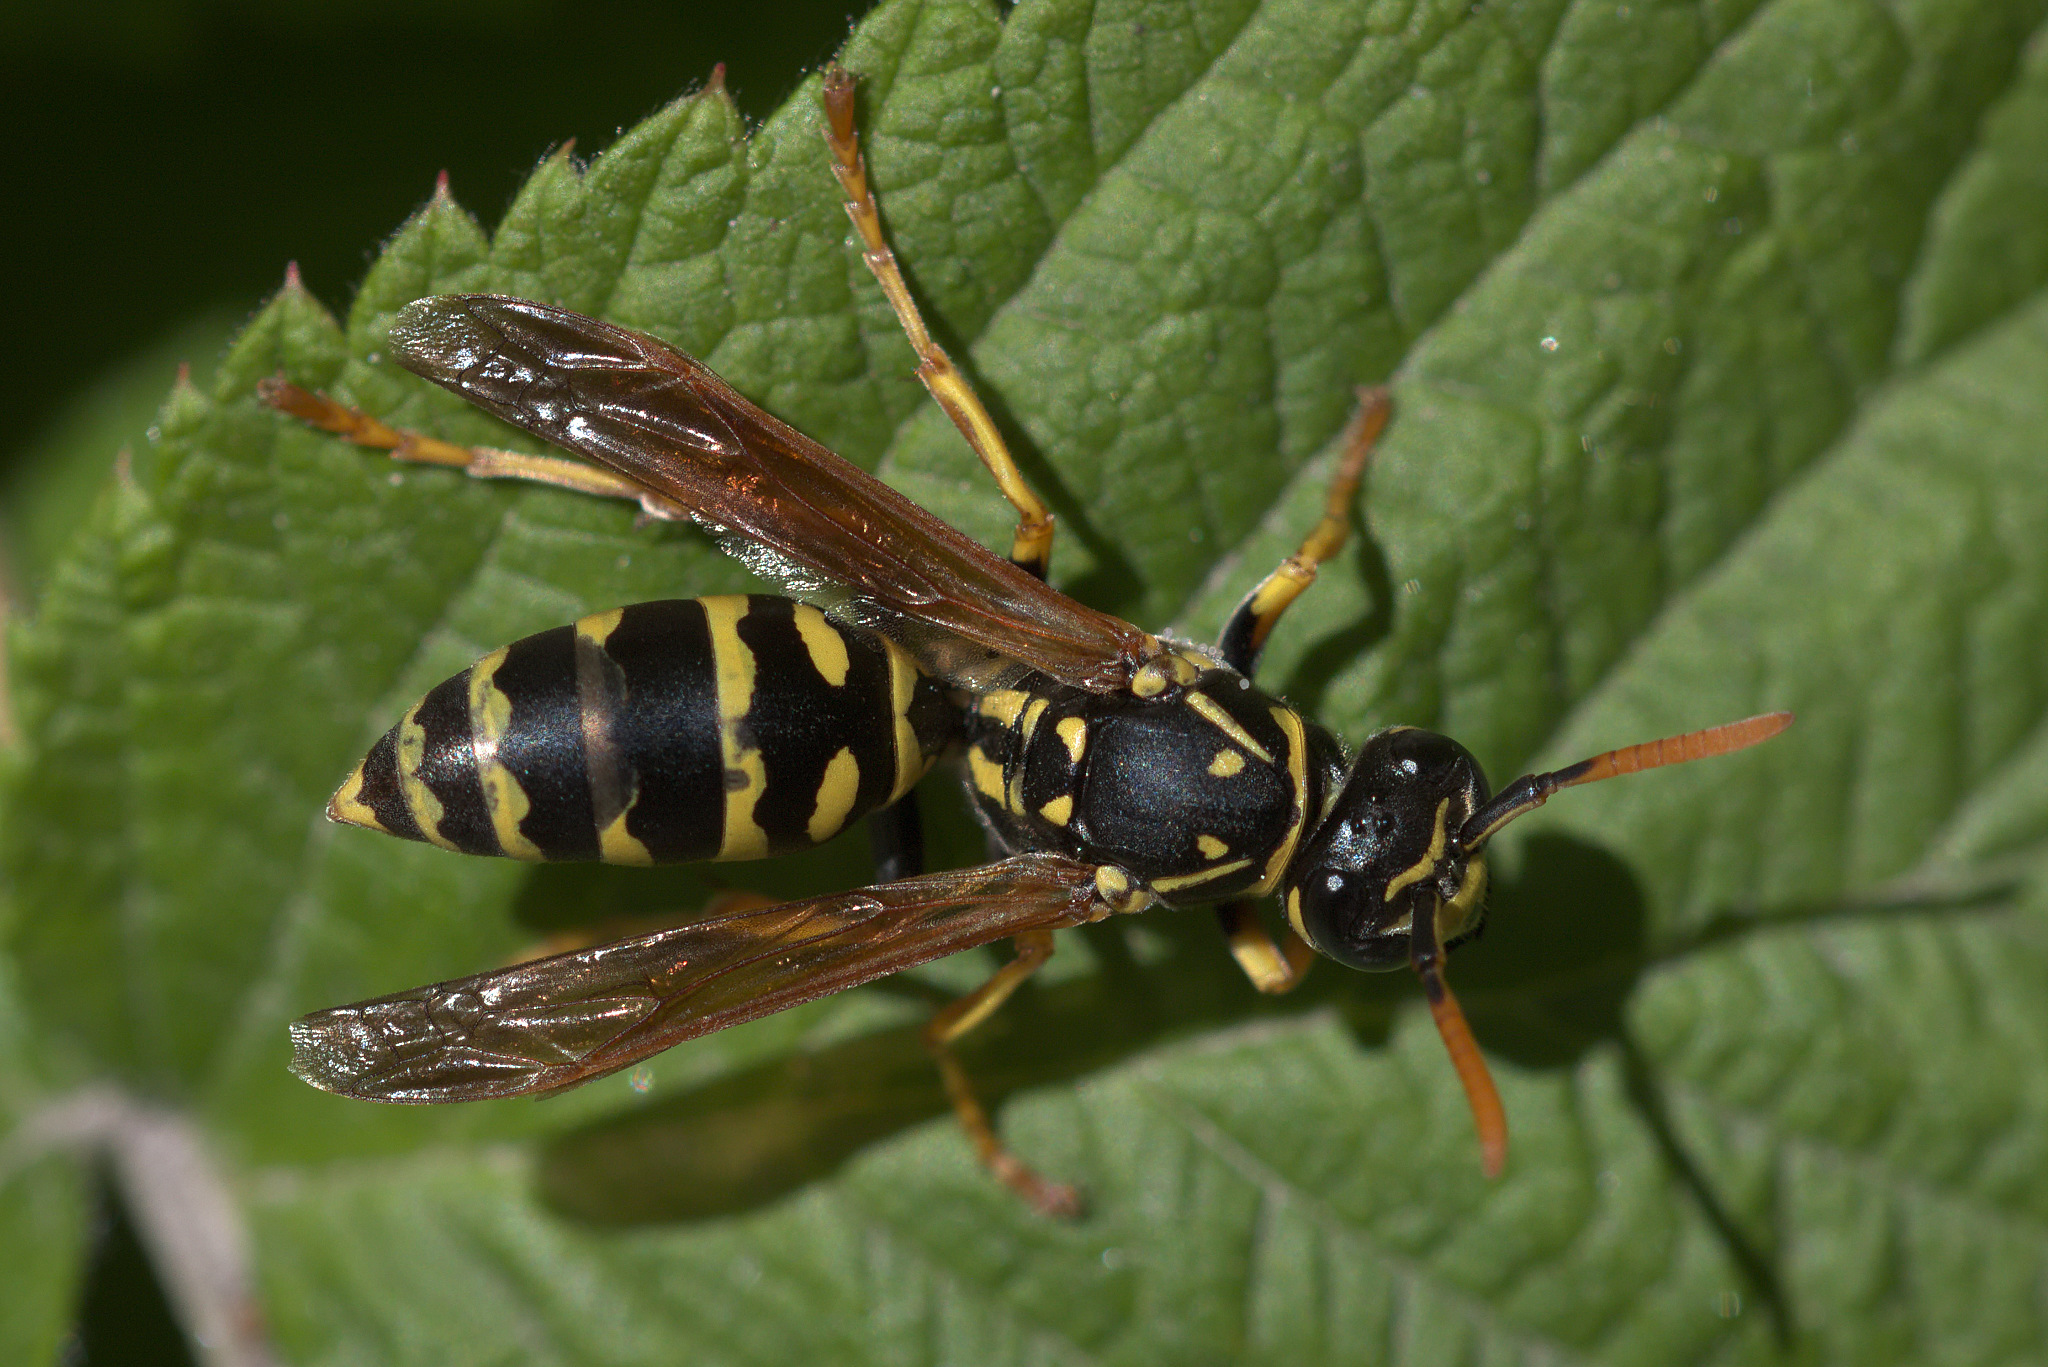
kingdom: Animalia
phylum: Arthropoda
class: Insecta
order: Hymenoptera
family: Eumenidae
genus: Polistes
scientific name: Polistes dominula
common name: Paper wasp
